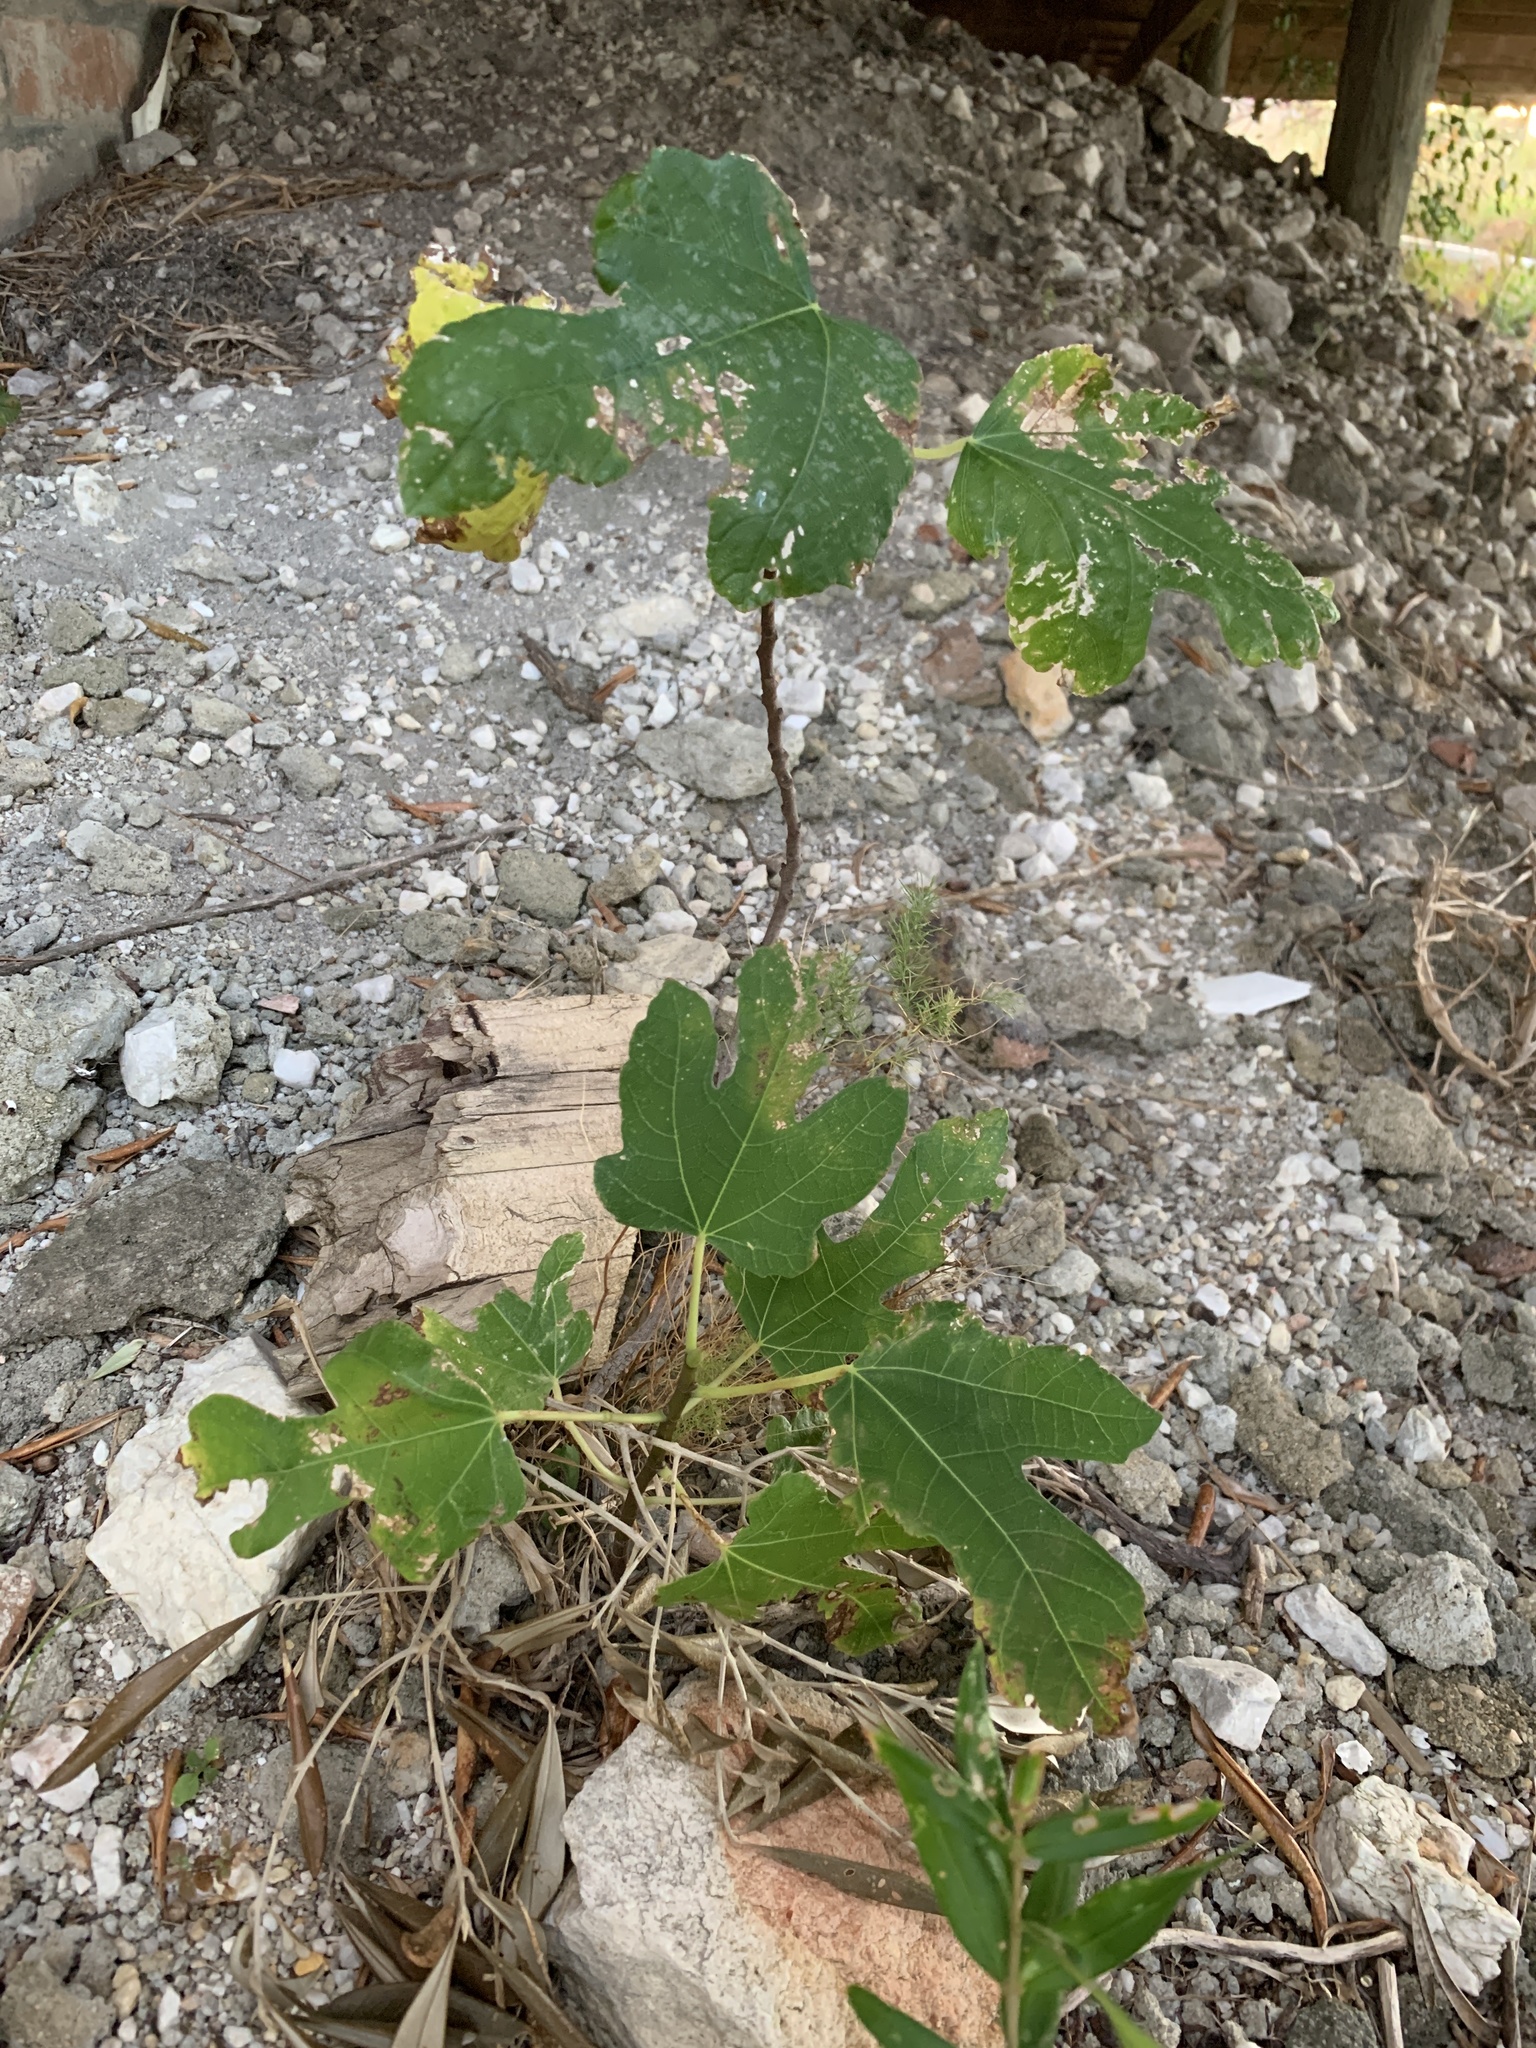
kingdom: Plantae
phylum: Tracheophyta
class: Magnoliopsida
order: Rosales
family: Moraceae
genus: Ficus
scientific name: Ficus carica
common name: Fig
